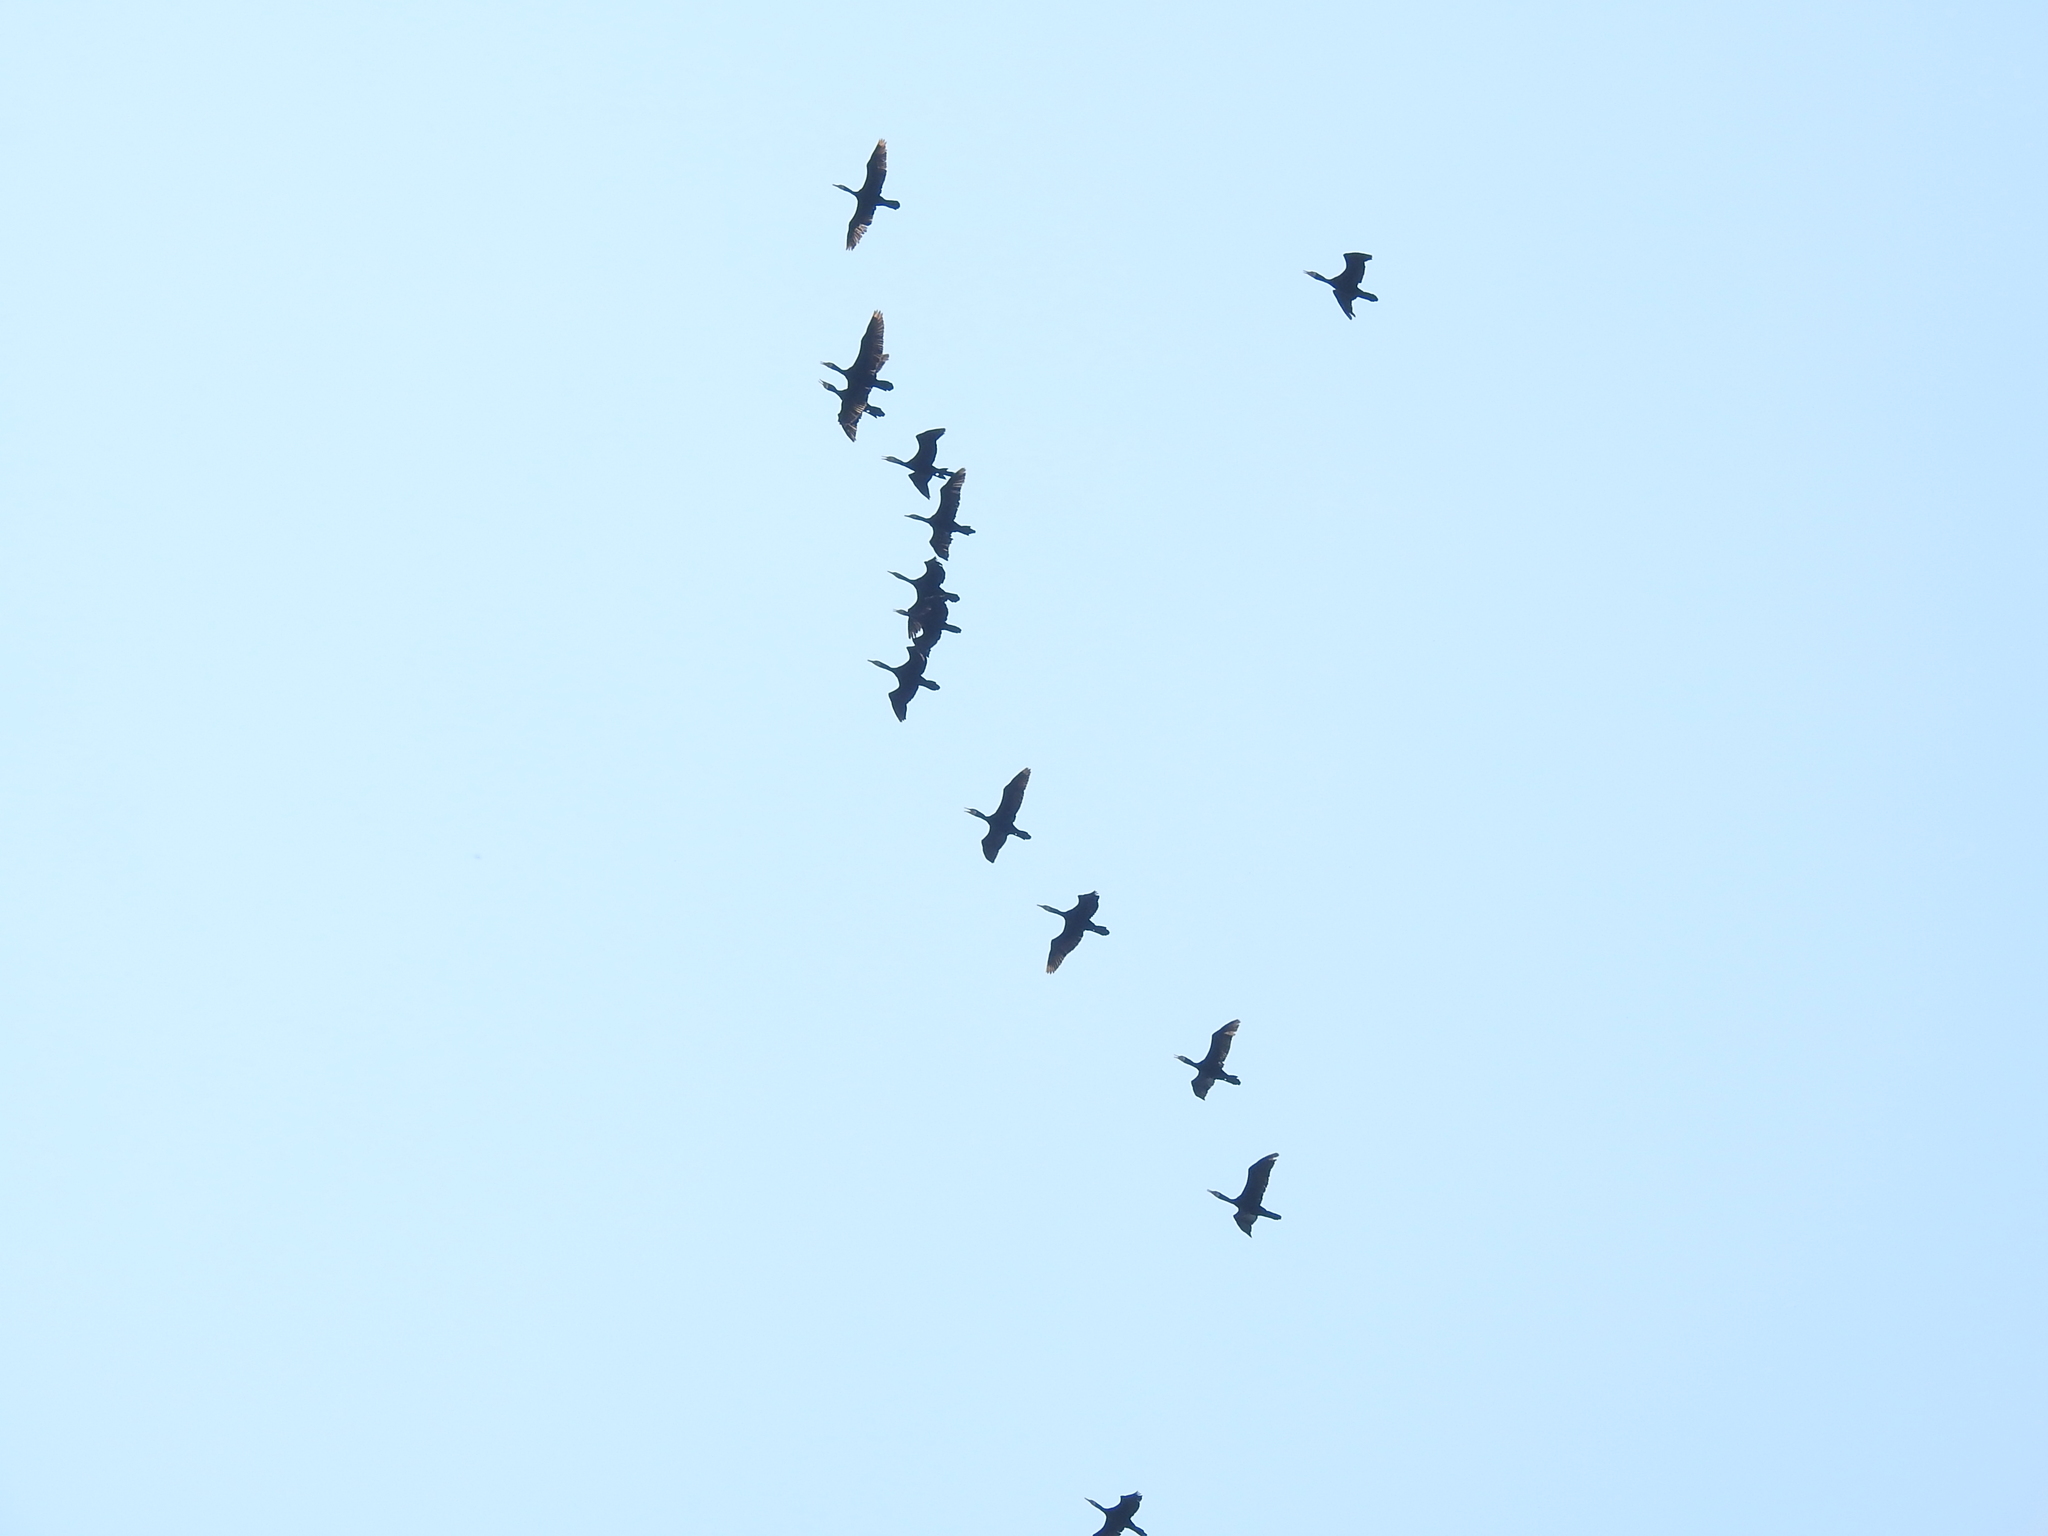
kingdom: Animalia
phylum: Chordata
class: Aves
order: Suliformes
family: Phalacrocoracidae
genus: Phalacrocorax
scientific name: Phalacrocorax carbo
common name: Great cormorant
